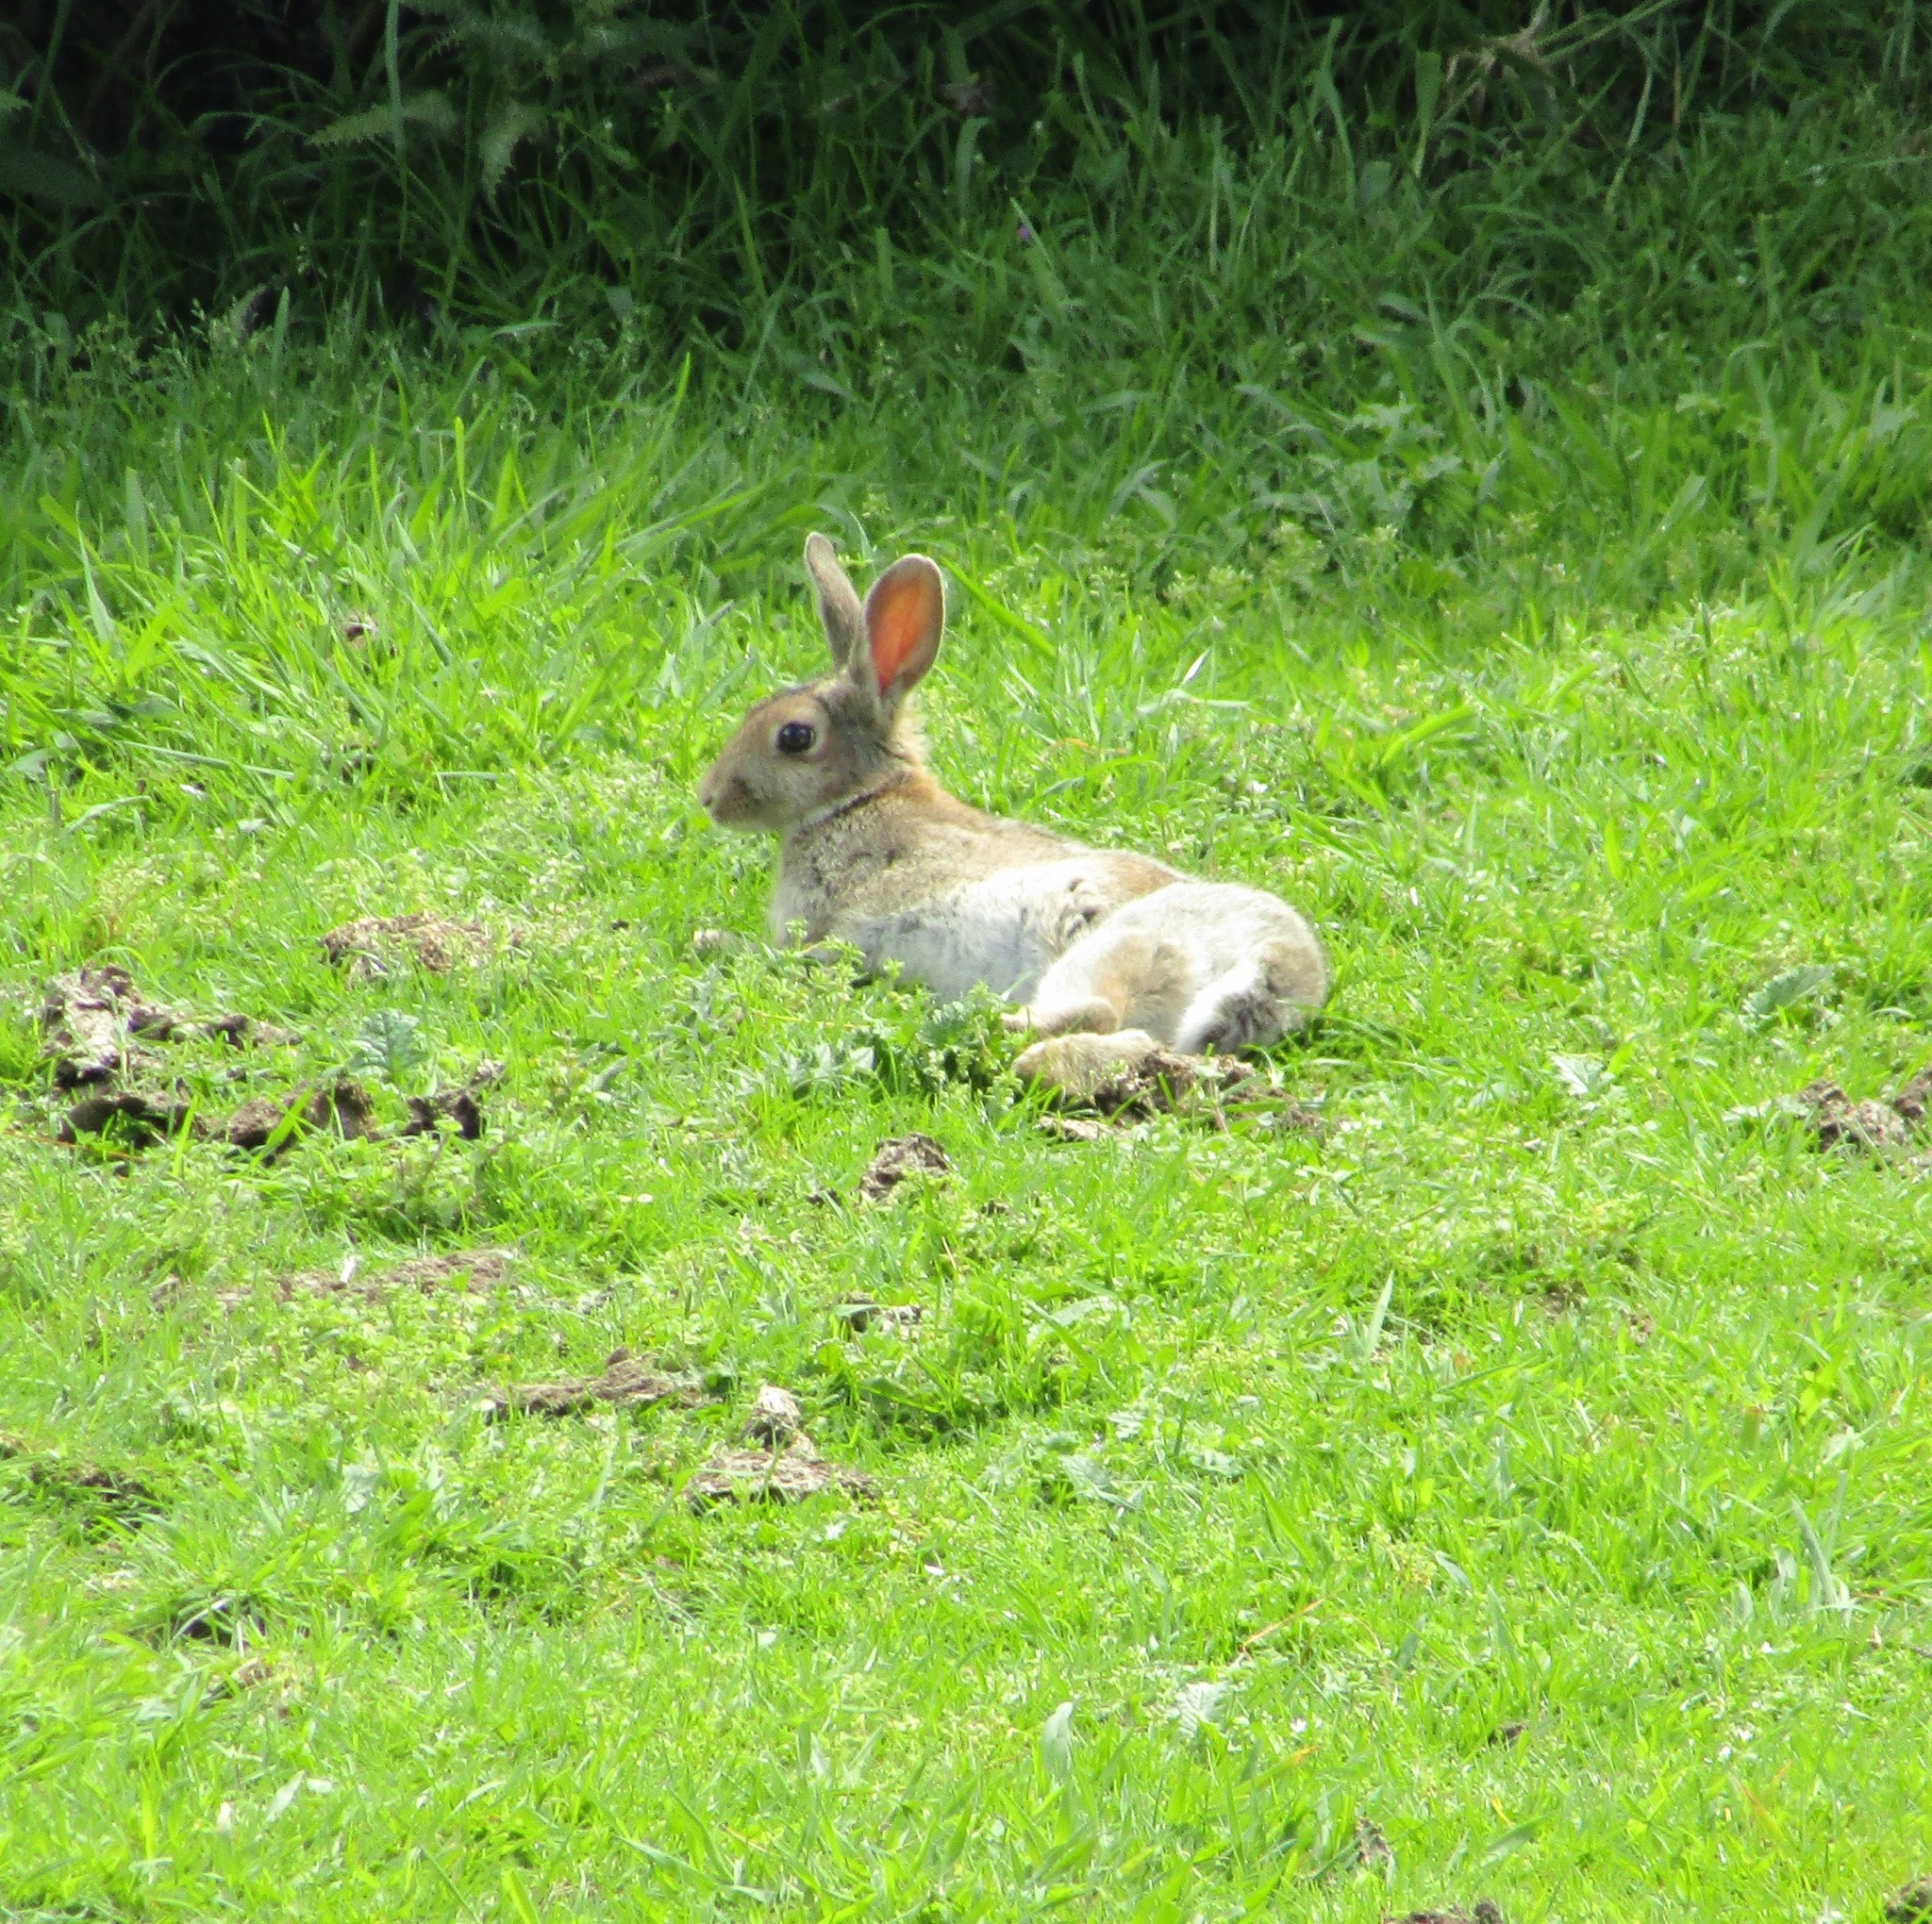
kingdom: Animalia
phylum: Chordata
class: Mammalia
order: Lagomorpha
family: Leporidae
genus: Oryctolagus
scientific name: Oryctolagus cuniculus
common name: European rabbit
